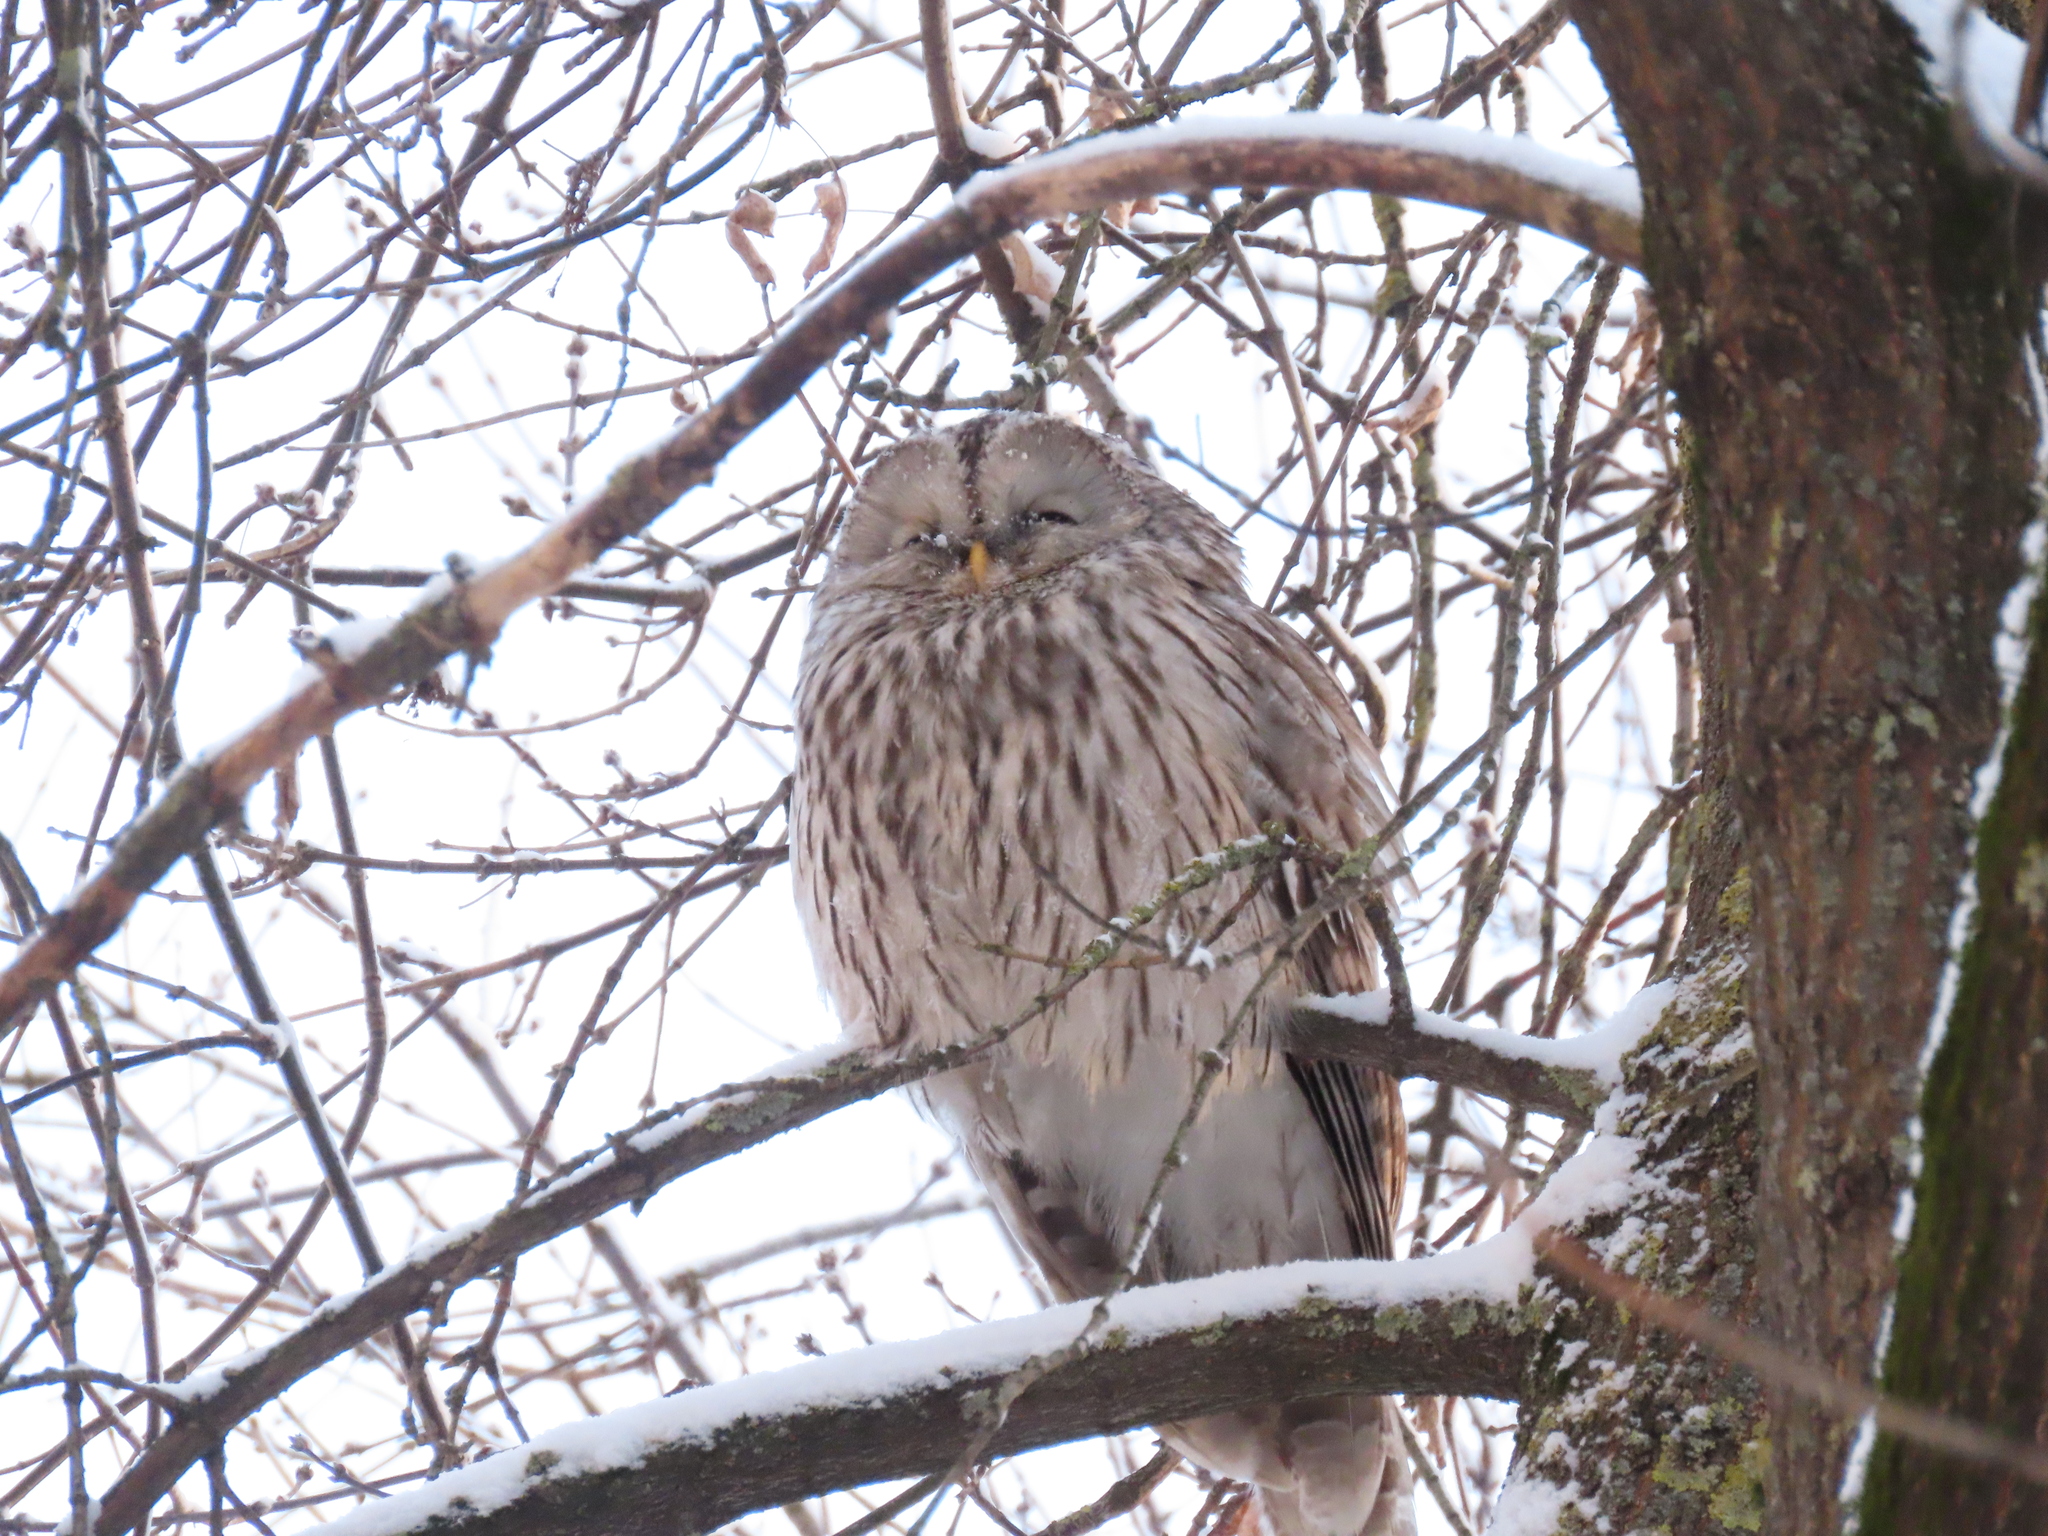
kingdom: Animalia
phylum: Chordata
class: Aves
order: Strigiformes
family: Strigidae
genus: Strix
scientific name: Strix uralensis
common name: Ural owl
